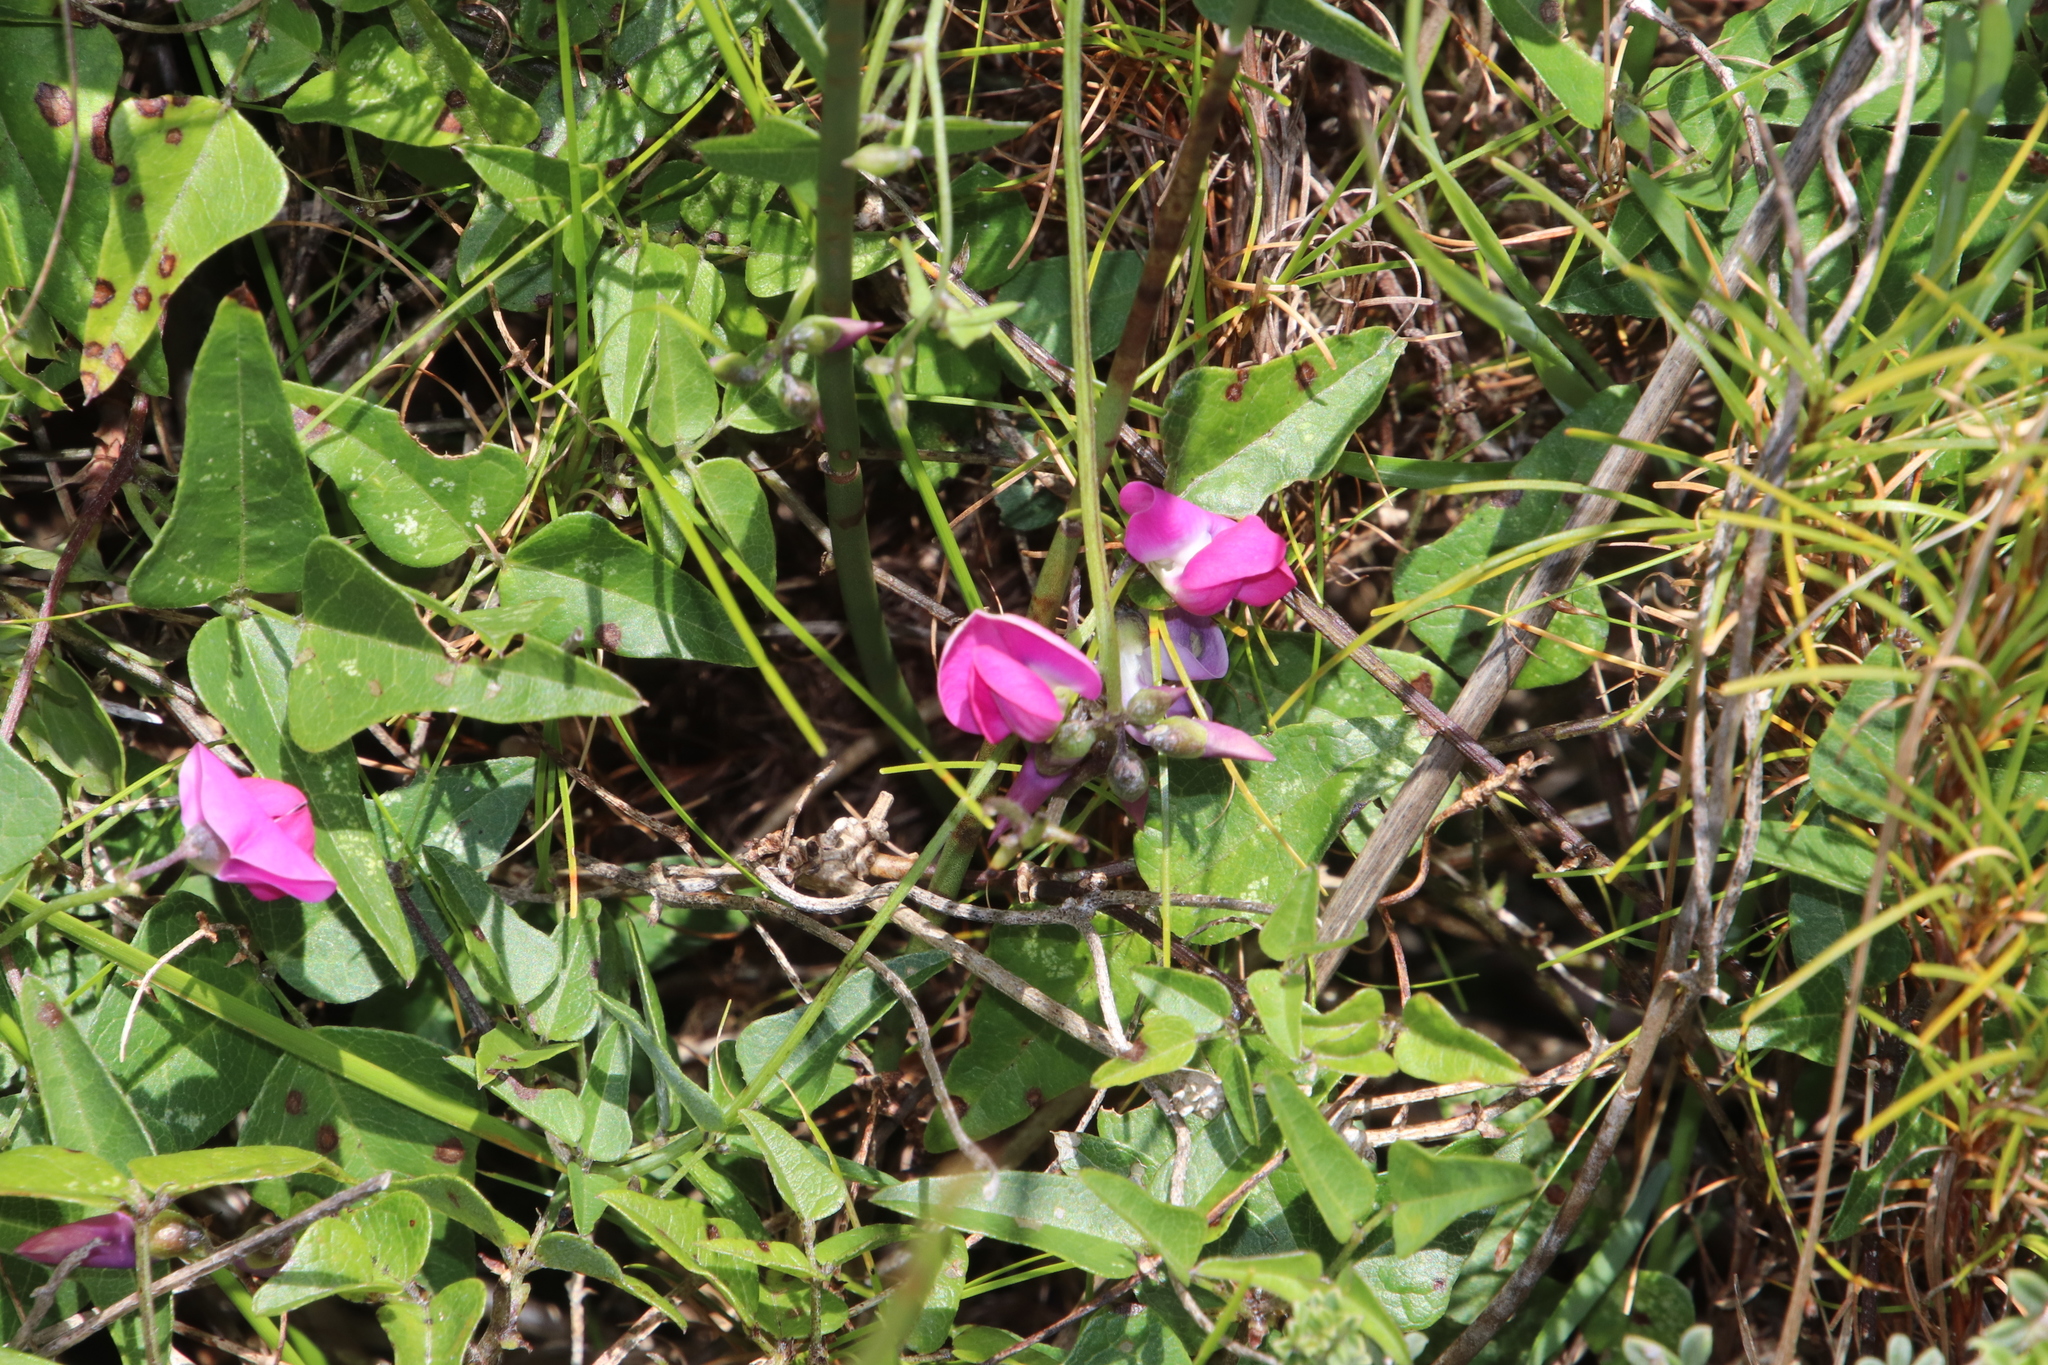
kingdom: Plantae
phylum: Tracheophyta
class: Magnoliopsida
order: Fabales
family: Fabaceae
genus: Dipogon
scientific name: Dipogon lignosus
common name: Okie bean
